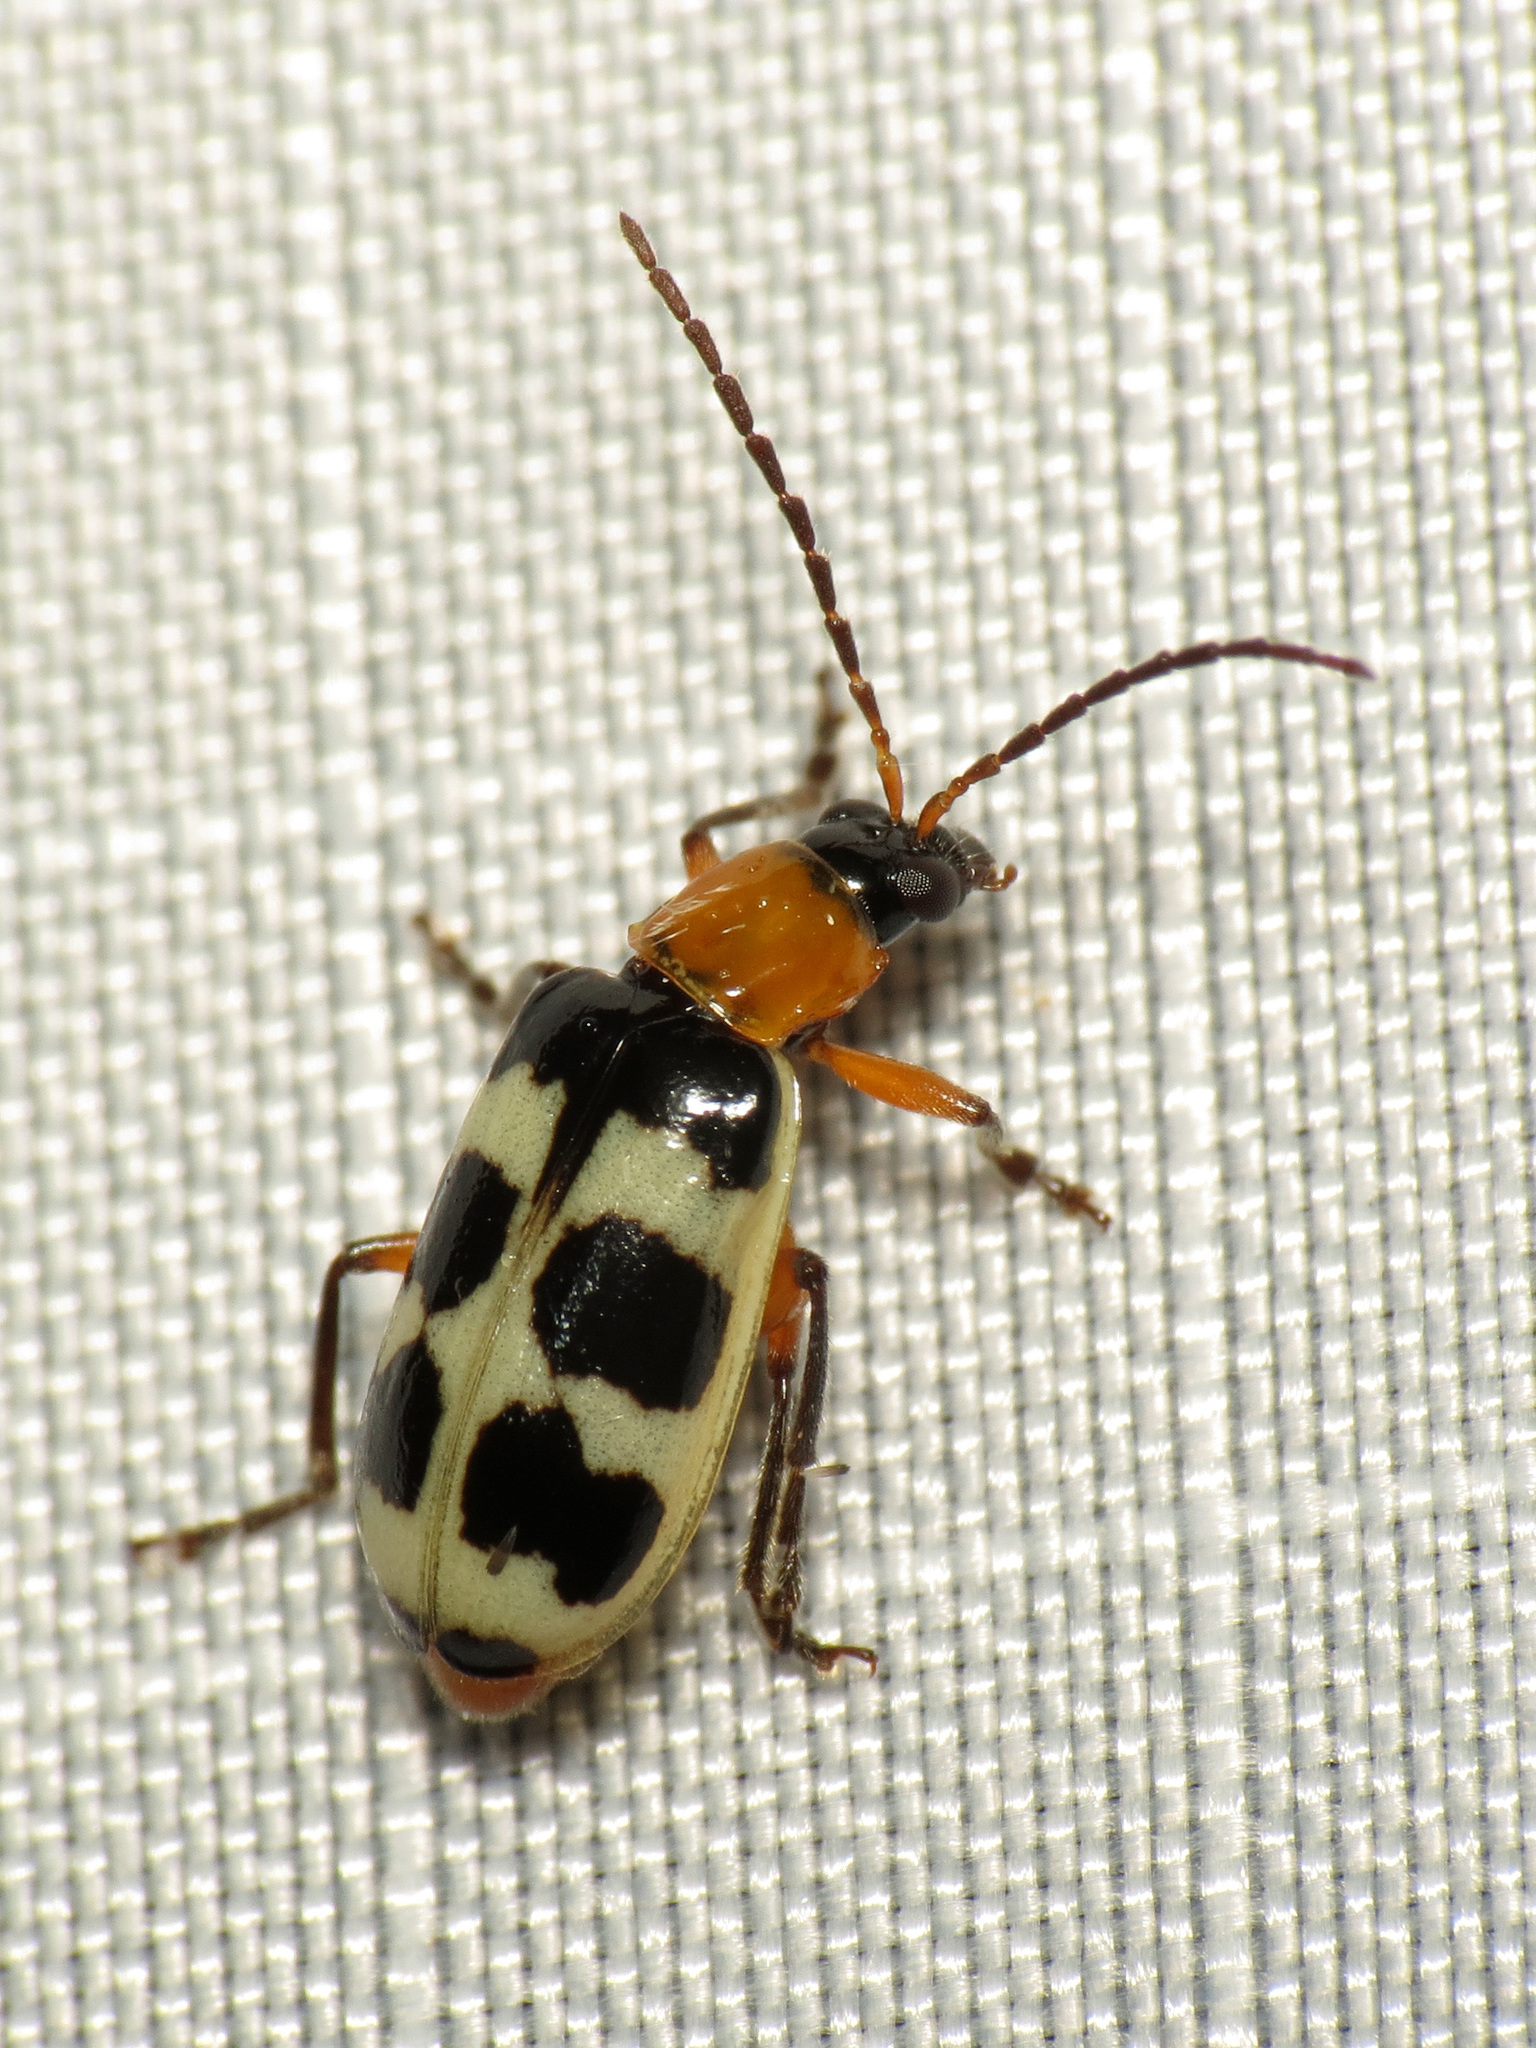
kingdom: Animalia
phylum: Arthropoda
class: Insecta
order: Coleoptera
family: Chrysomelidae
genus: Paranapiacaba
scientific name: Paranapiacaba tricincta
